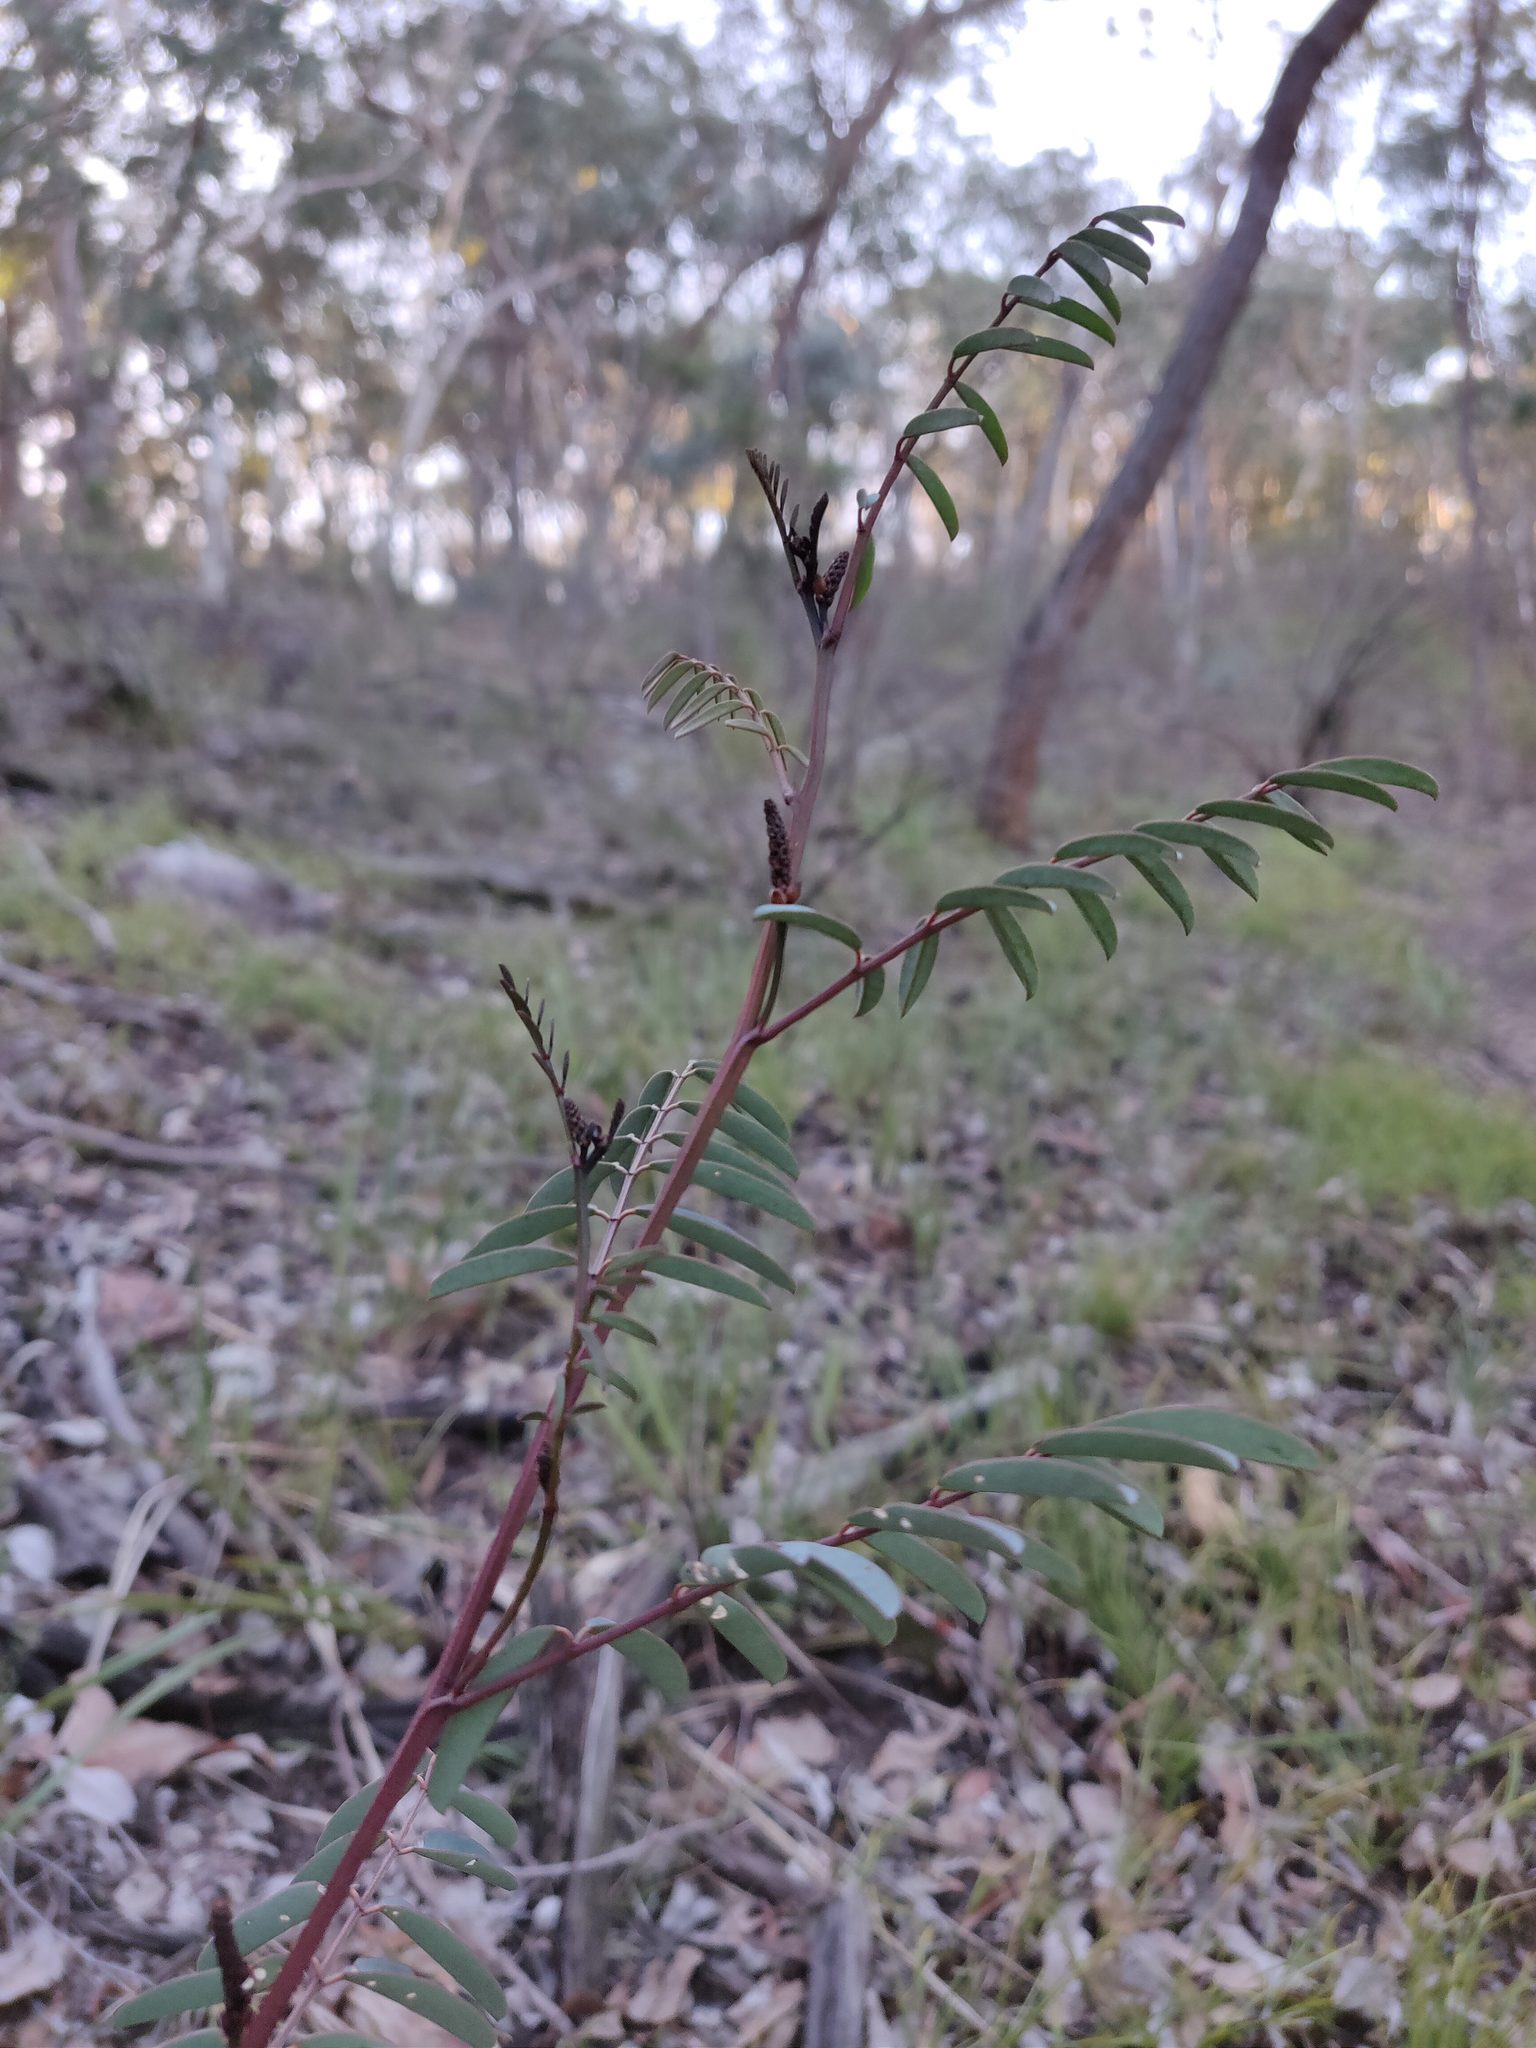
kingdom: Plantae
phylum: Tracheophyta
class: Magnoliopsida
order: Ericales
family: Ericaceae
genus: Melichrus
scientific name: Melichrus urceolatus
